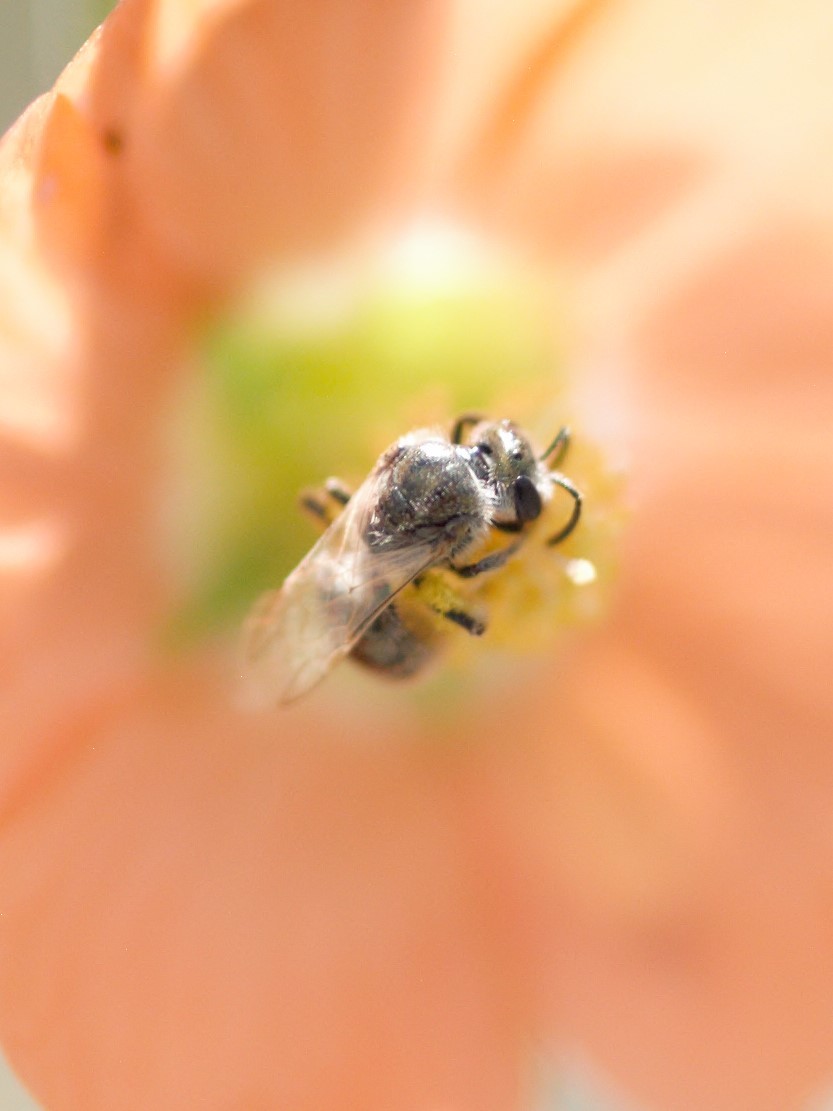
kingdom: Animalia
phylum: Arthropoda
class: Insecta
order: Hymenoptera
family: Halictidae
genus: Dialictus
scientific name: Dialictus
